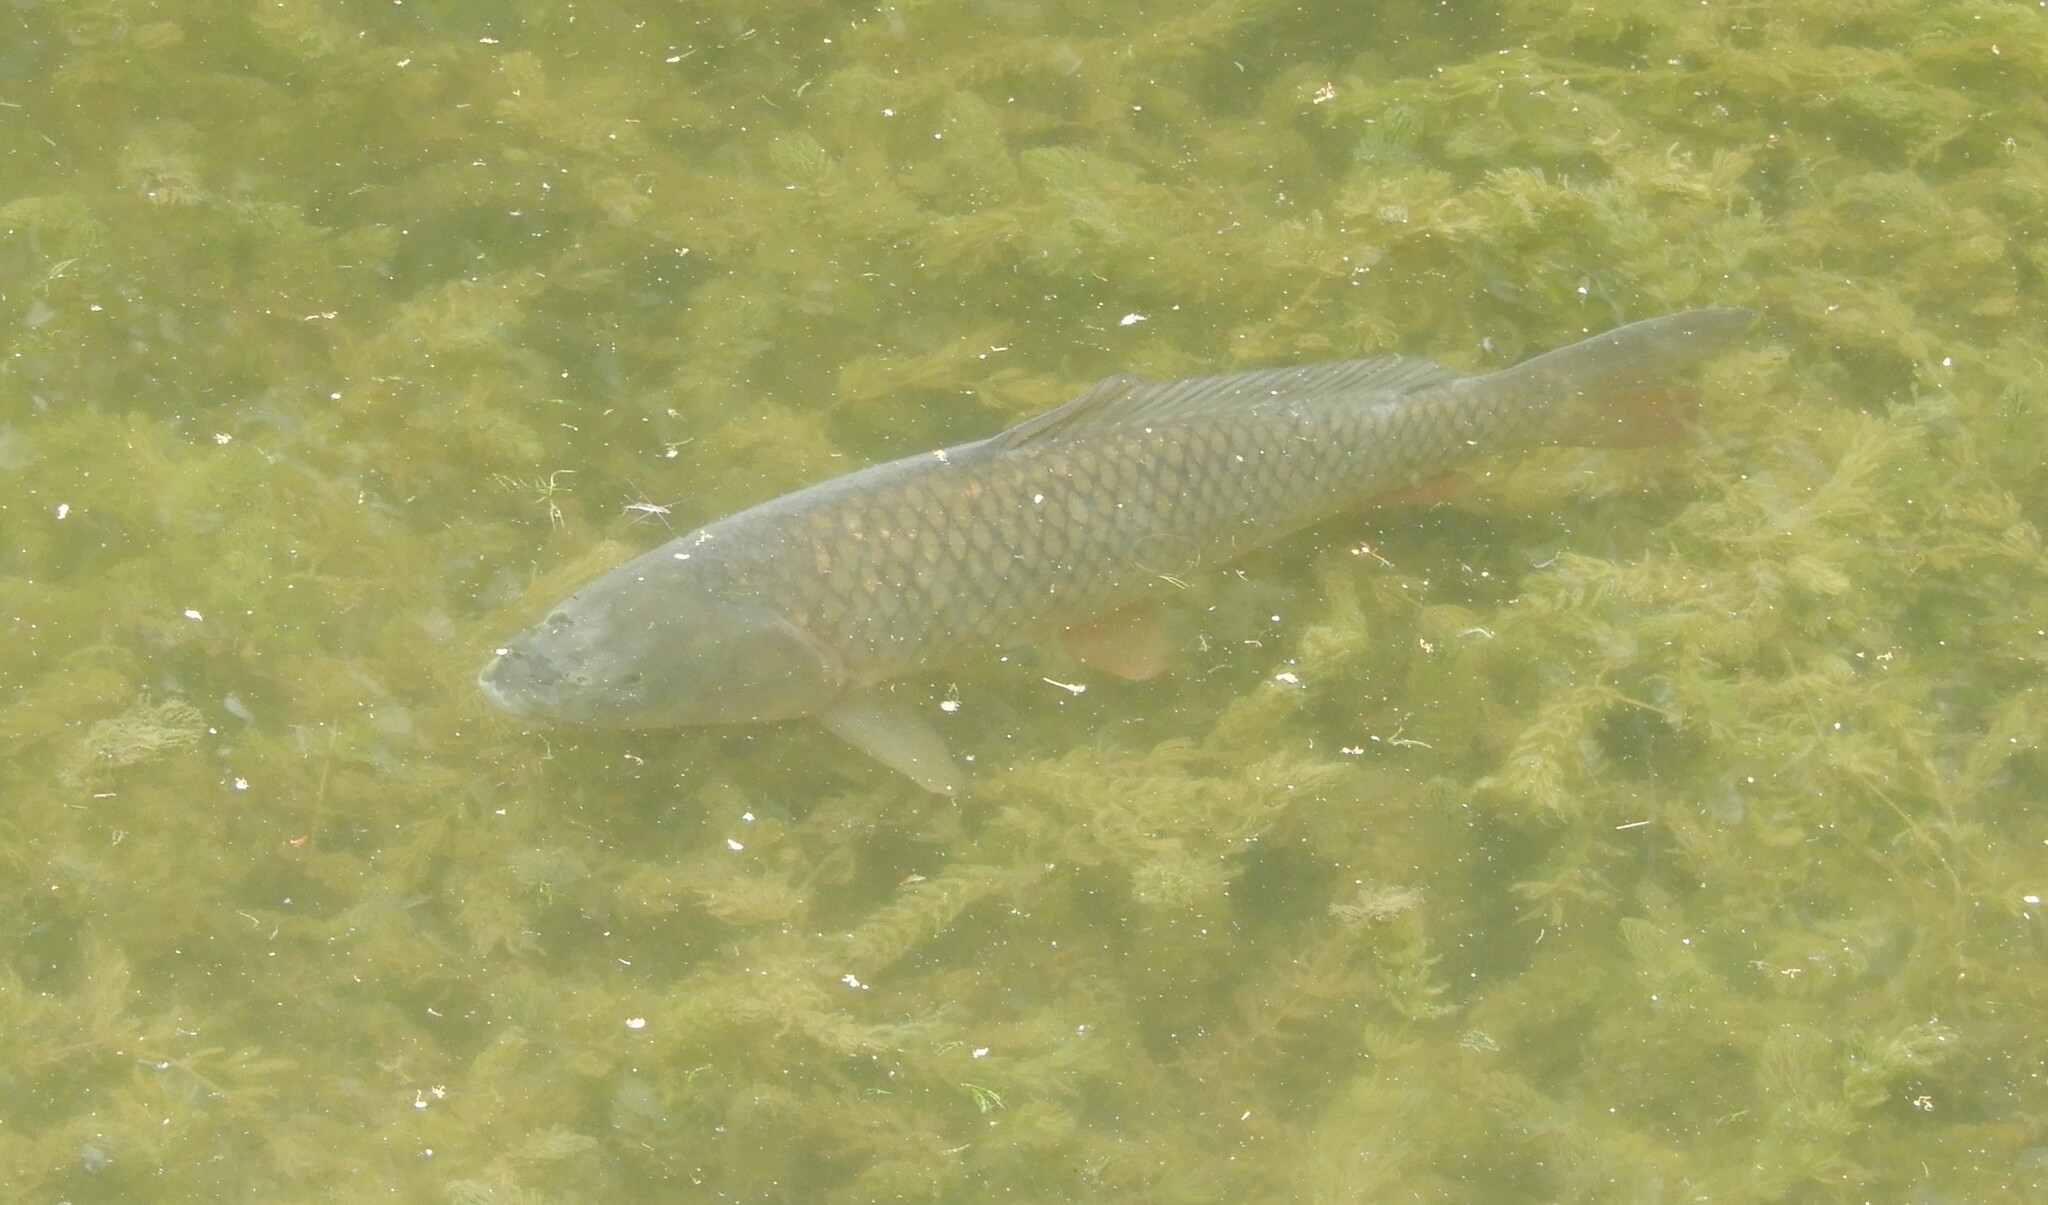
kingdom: Animalia
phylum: Chordata
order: Cypriniformes
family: Cyprinidae
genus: Cyprinus
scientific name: Cyprinus carpio
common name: Common carp
